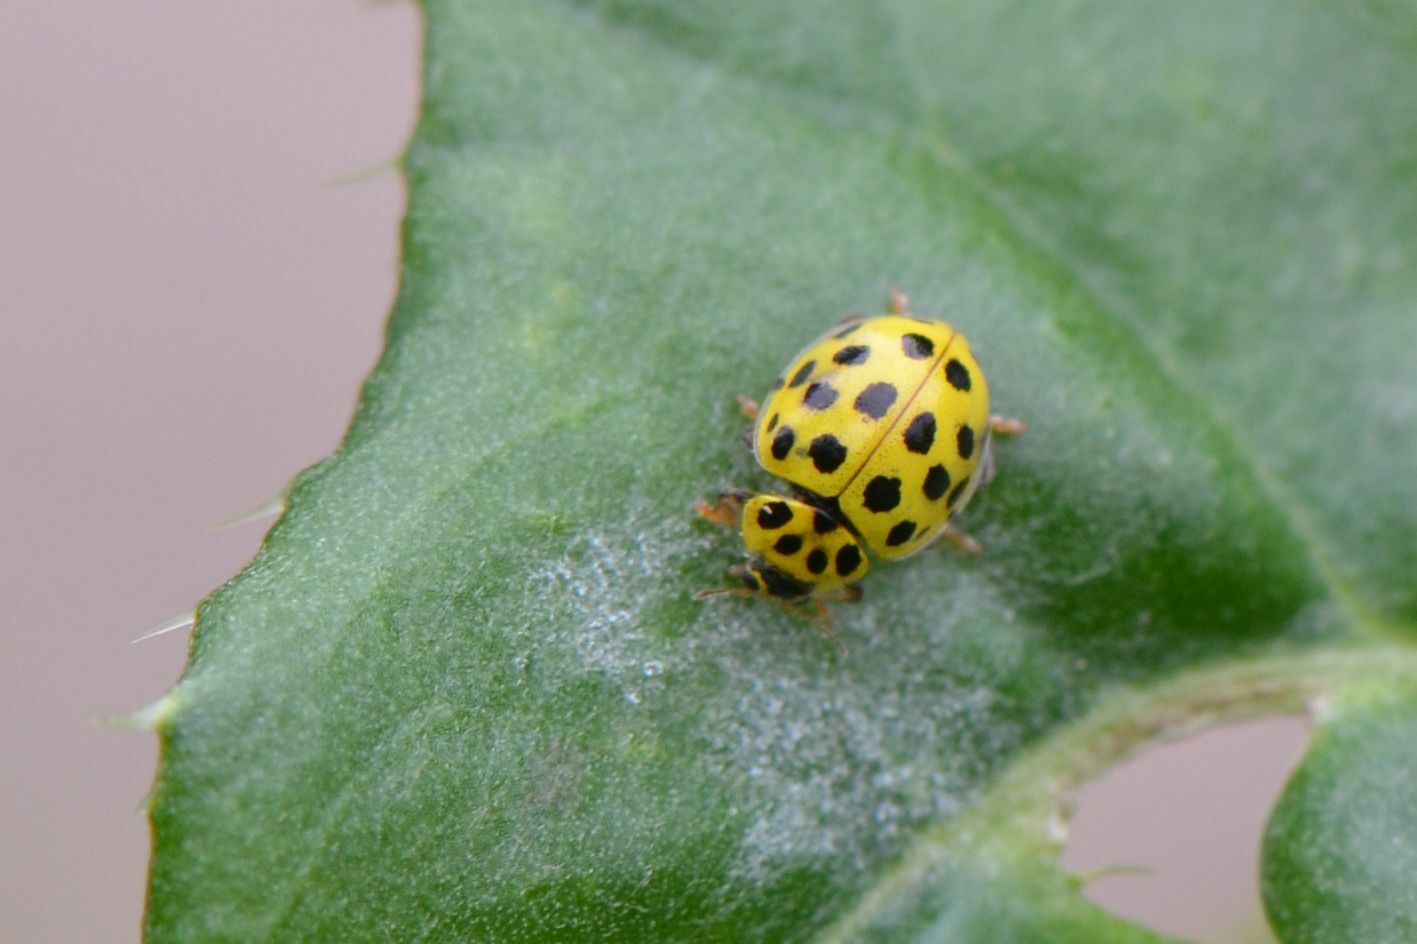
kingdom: Animalia
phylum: Arthropoda
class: Insecta
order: Coleoptera
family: Coccinellidae
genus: Psyllobora
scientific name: Psyllobora vigintiduopunctata
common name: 22-spot ladybird
